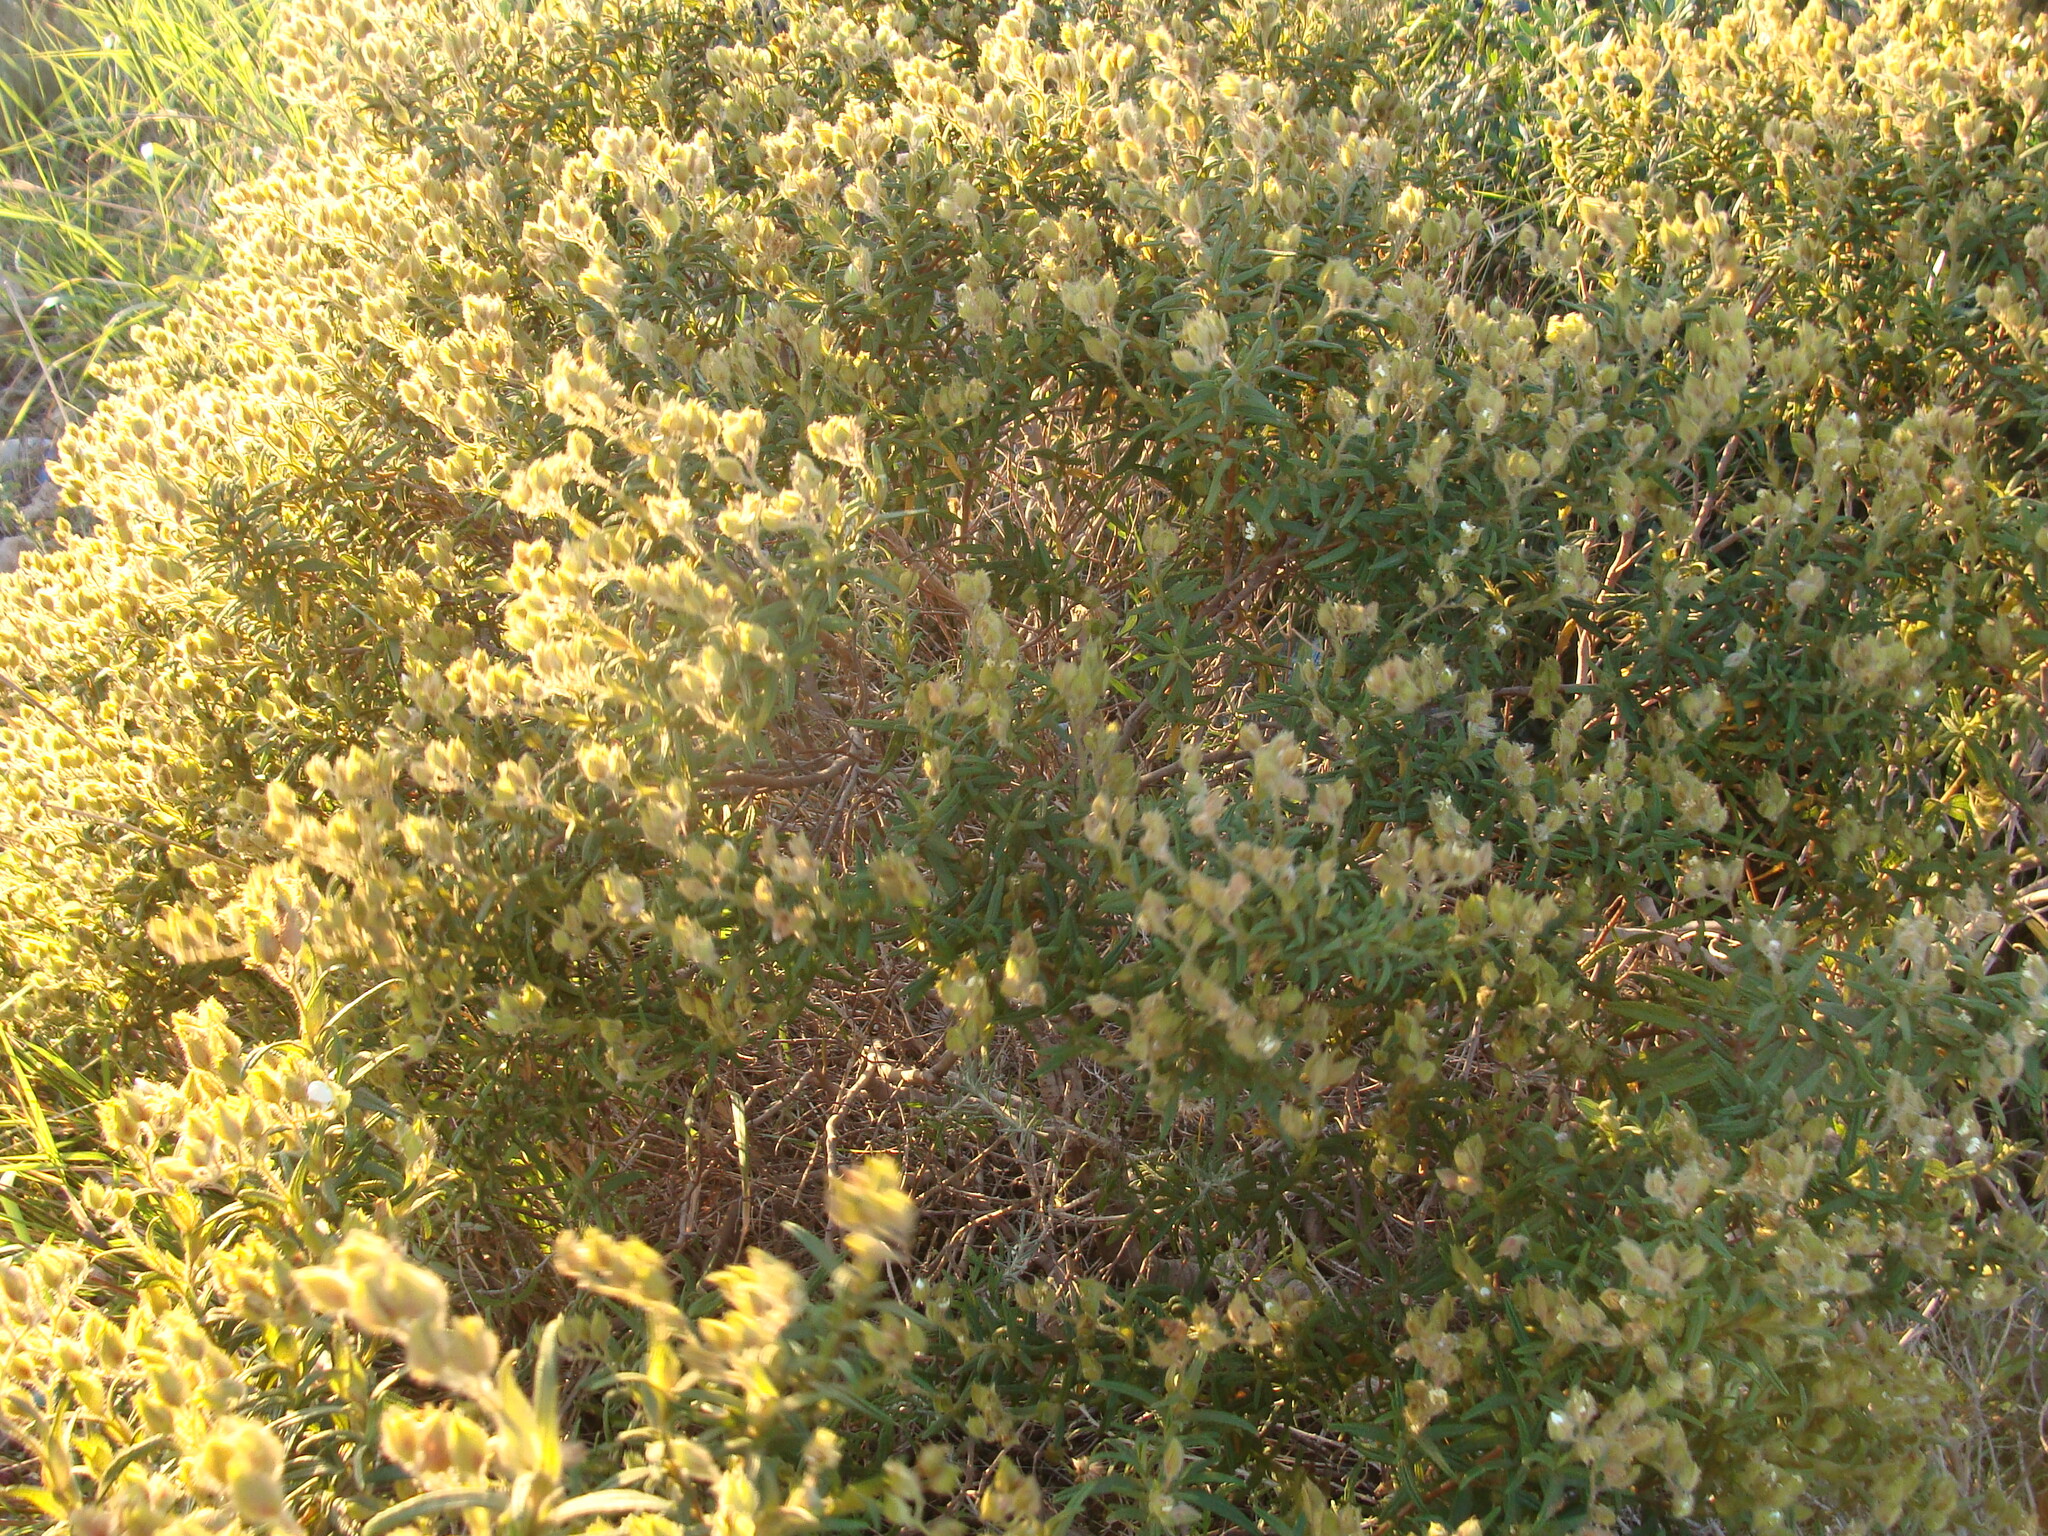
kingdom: Plantae
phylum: Tracheophyta
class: Magnoliopsida
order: Malvales
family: Cistaceae
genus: Cistus
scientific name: Cistus monspeliensis
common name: Montpelier cistus
